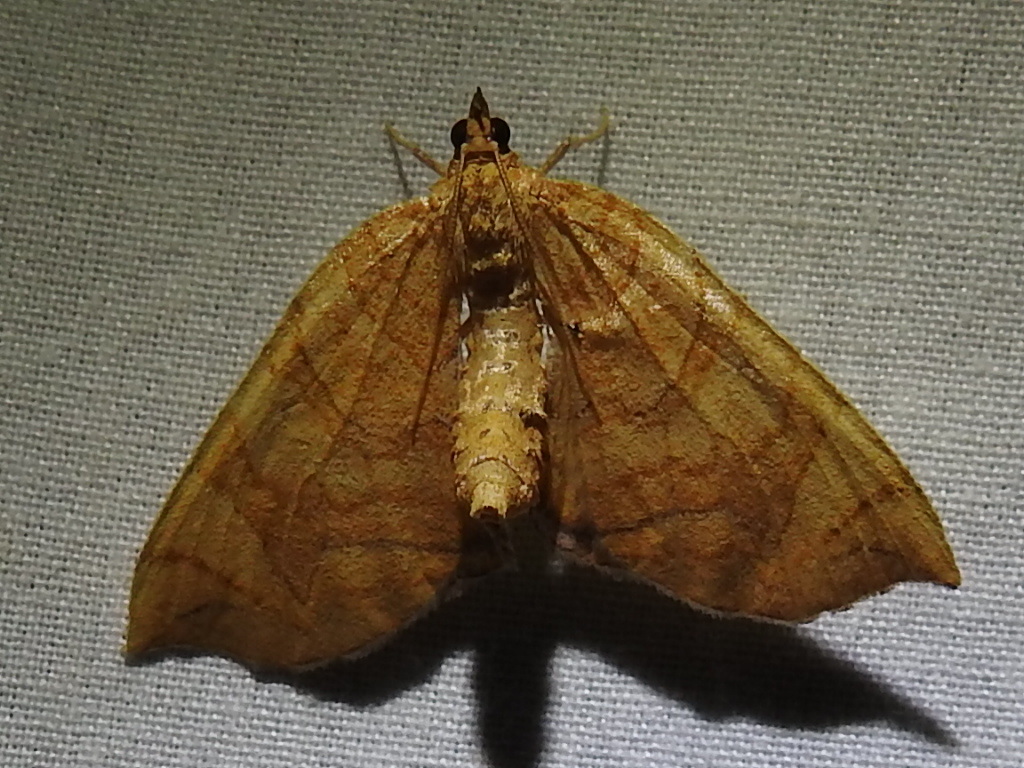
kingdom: Animalia
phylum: Arthropoda
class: Insecta
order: Lepidoptera
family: Geometridae
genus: Eulithis
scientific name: Eulithis
